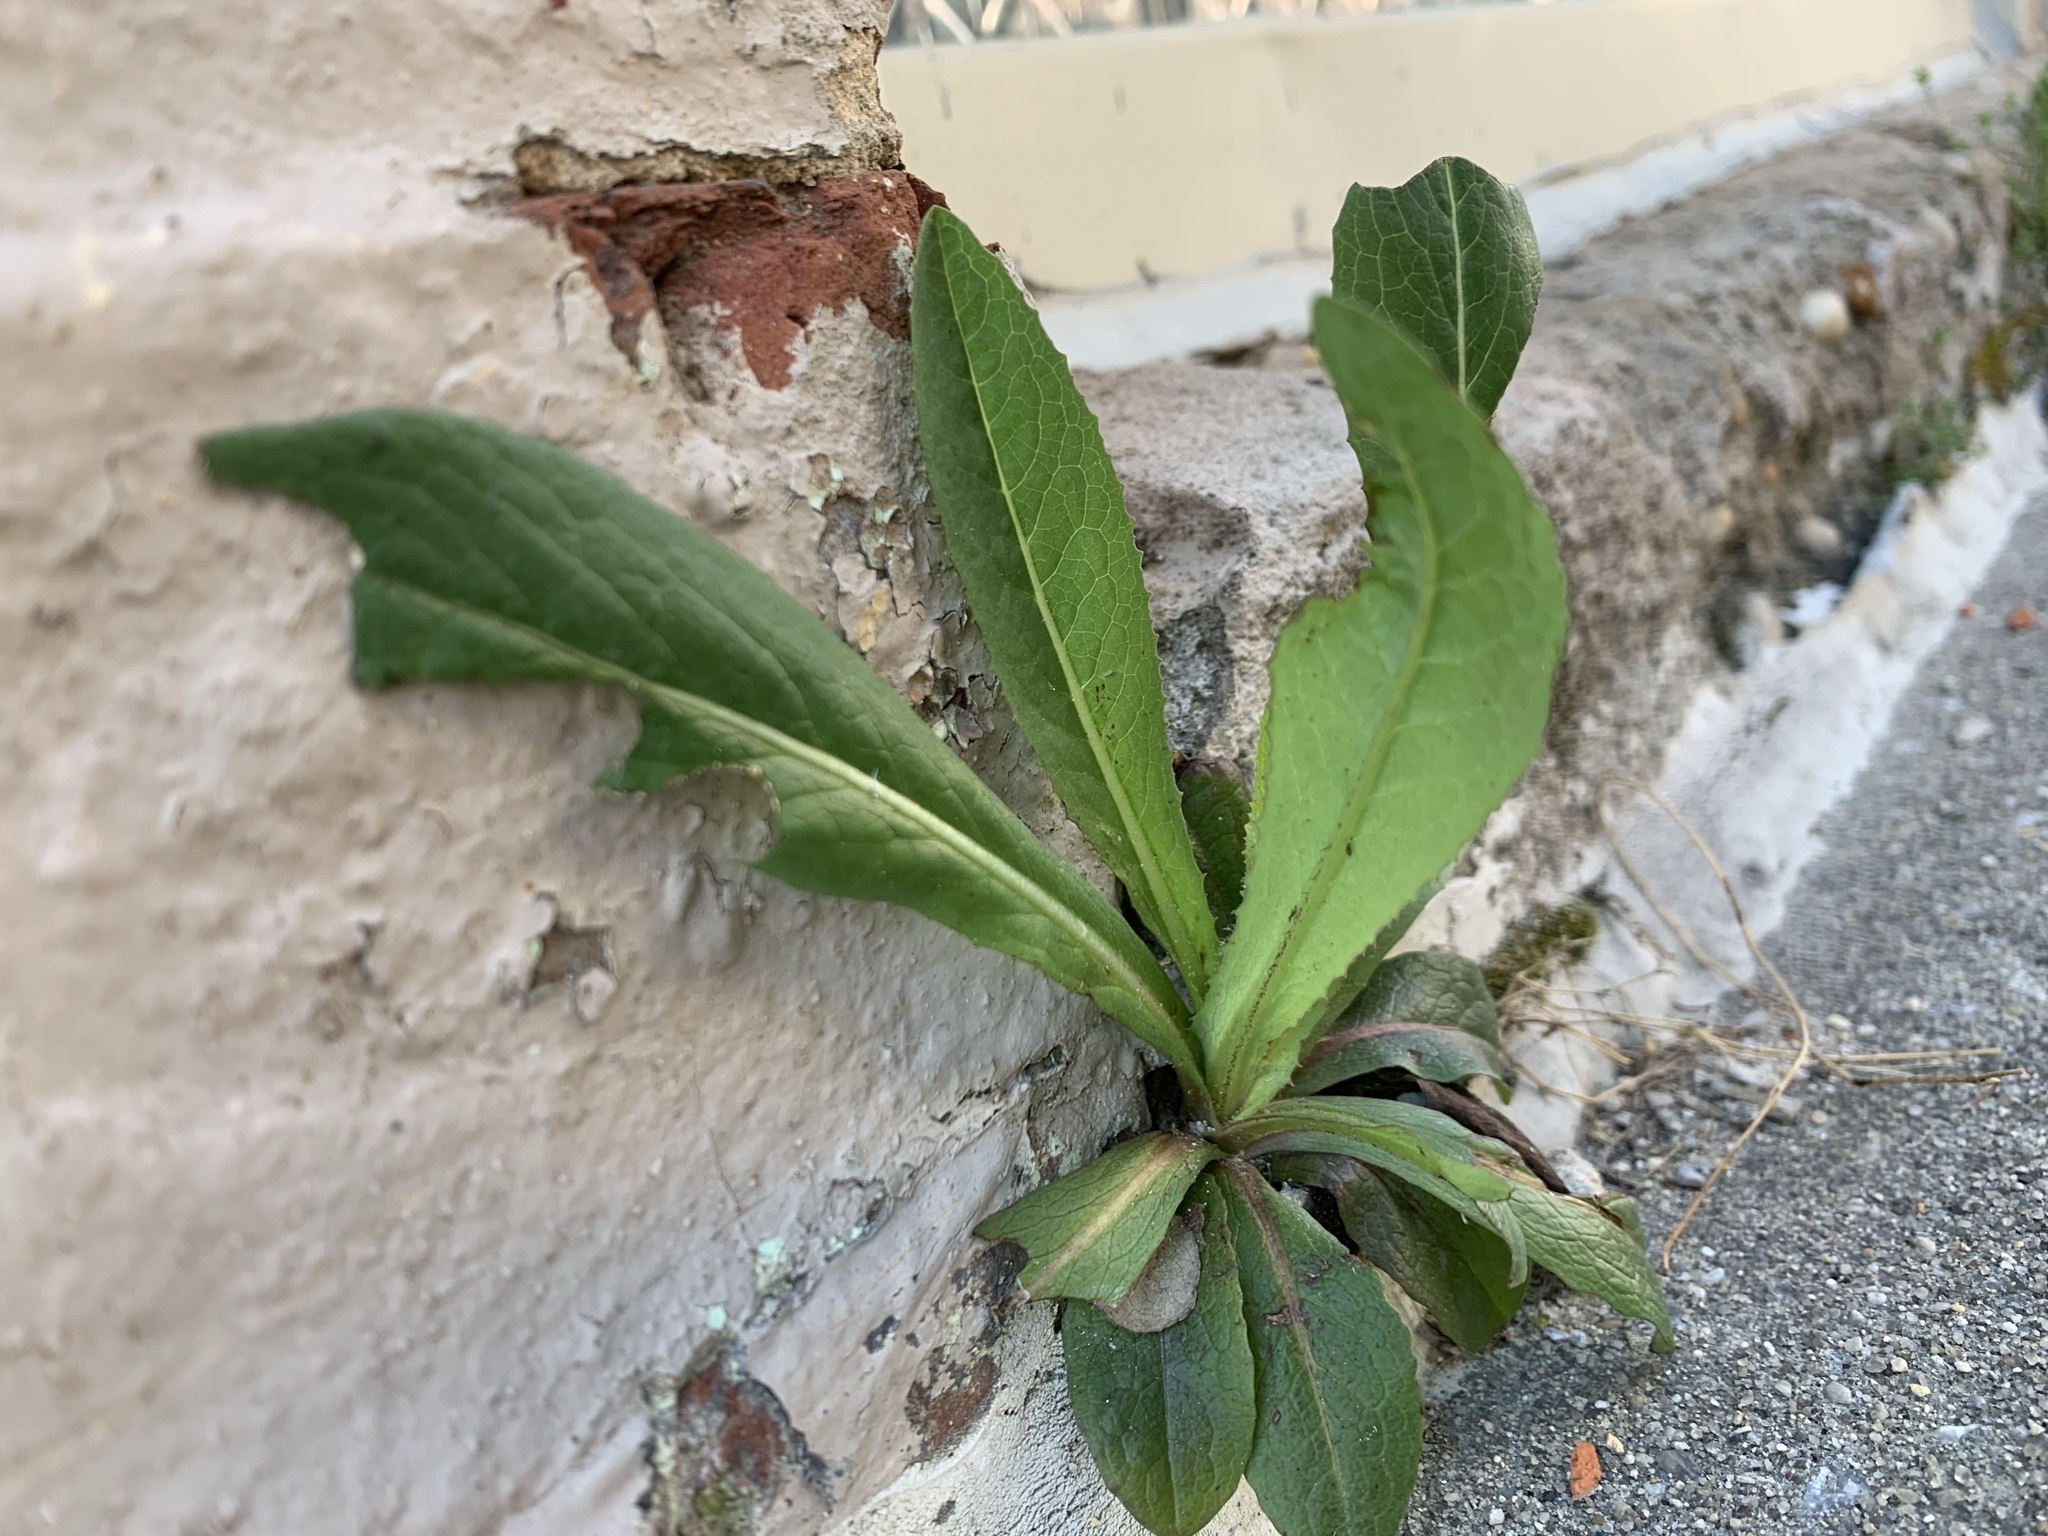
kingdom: Plantae
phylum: Tracheophyta
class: Magnoliopsida
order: Asterales
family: Asteraceae
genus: Lactuca
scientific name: Lactuca serriola
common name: Prickly lettuce
